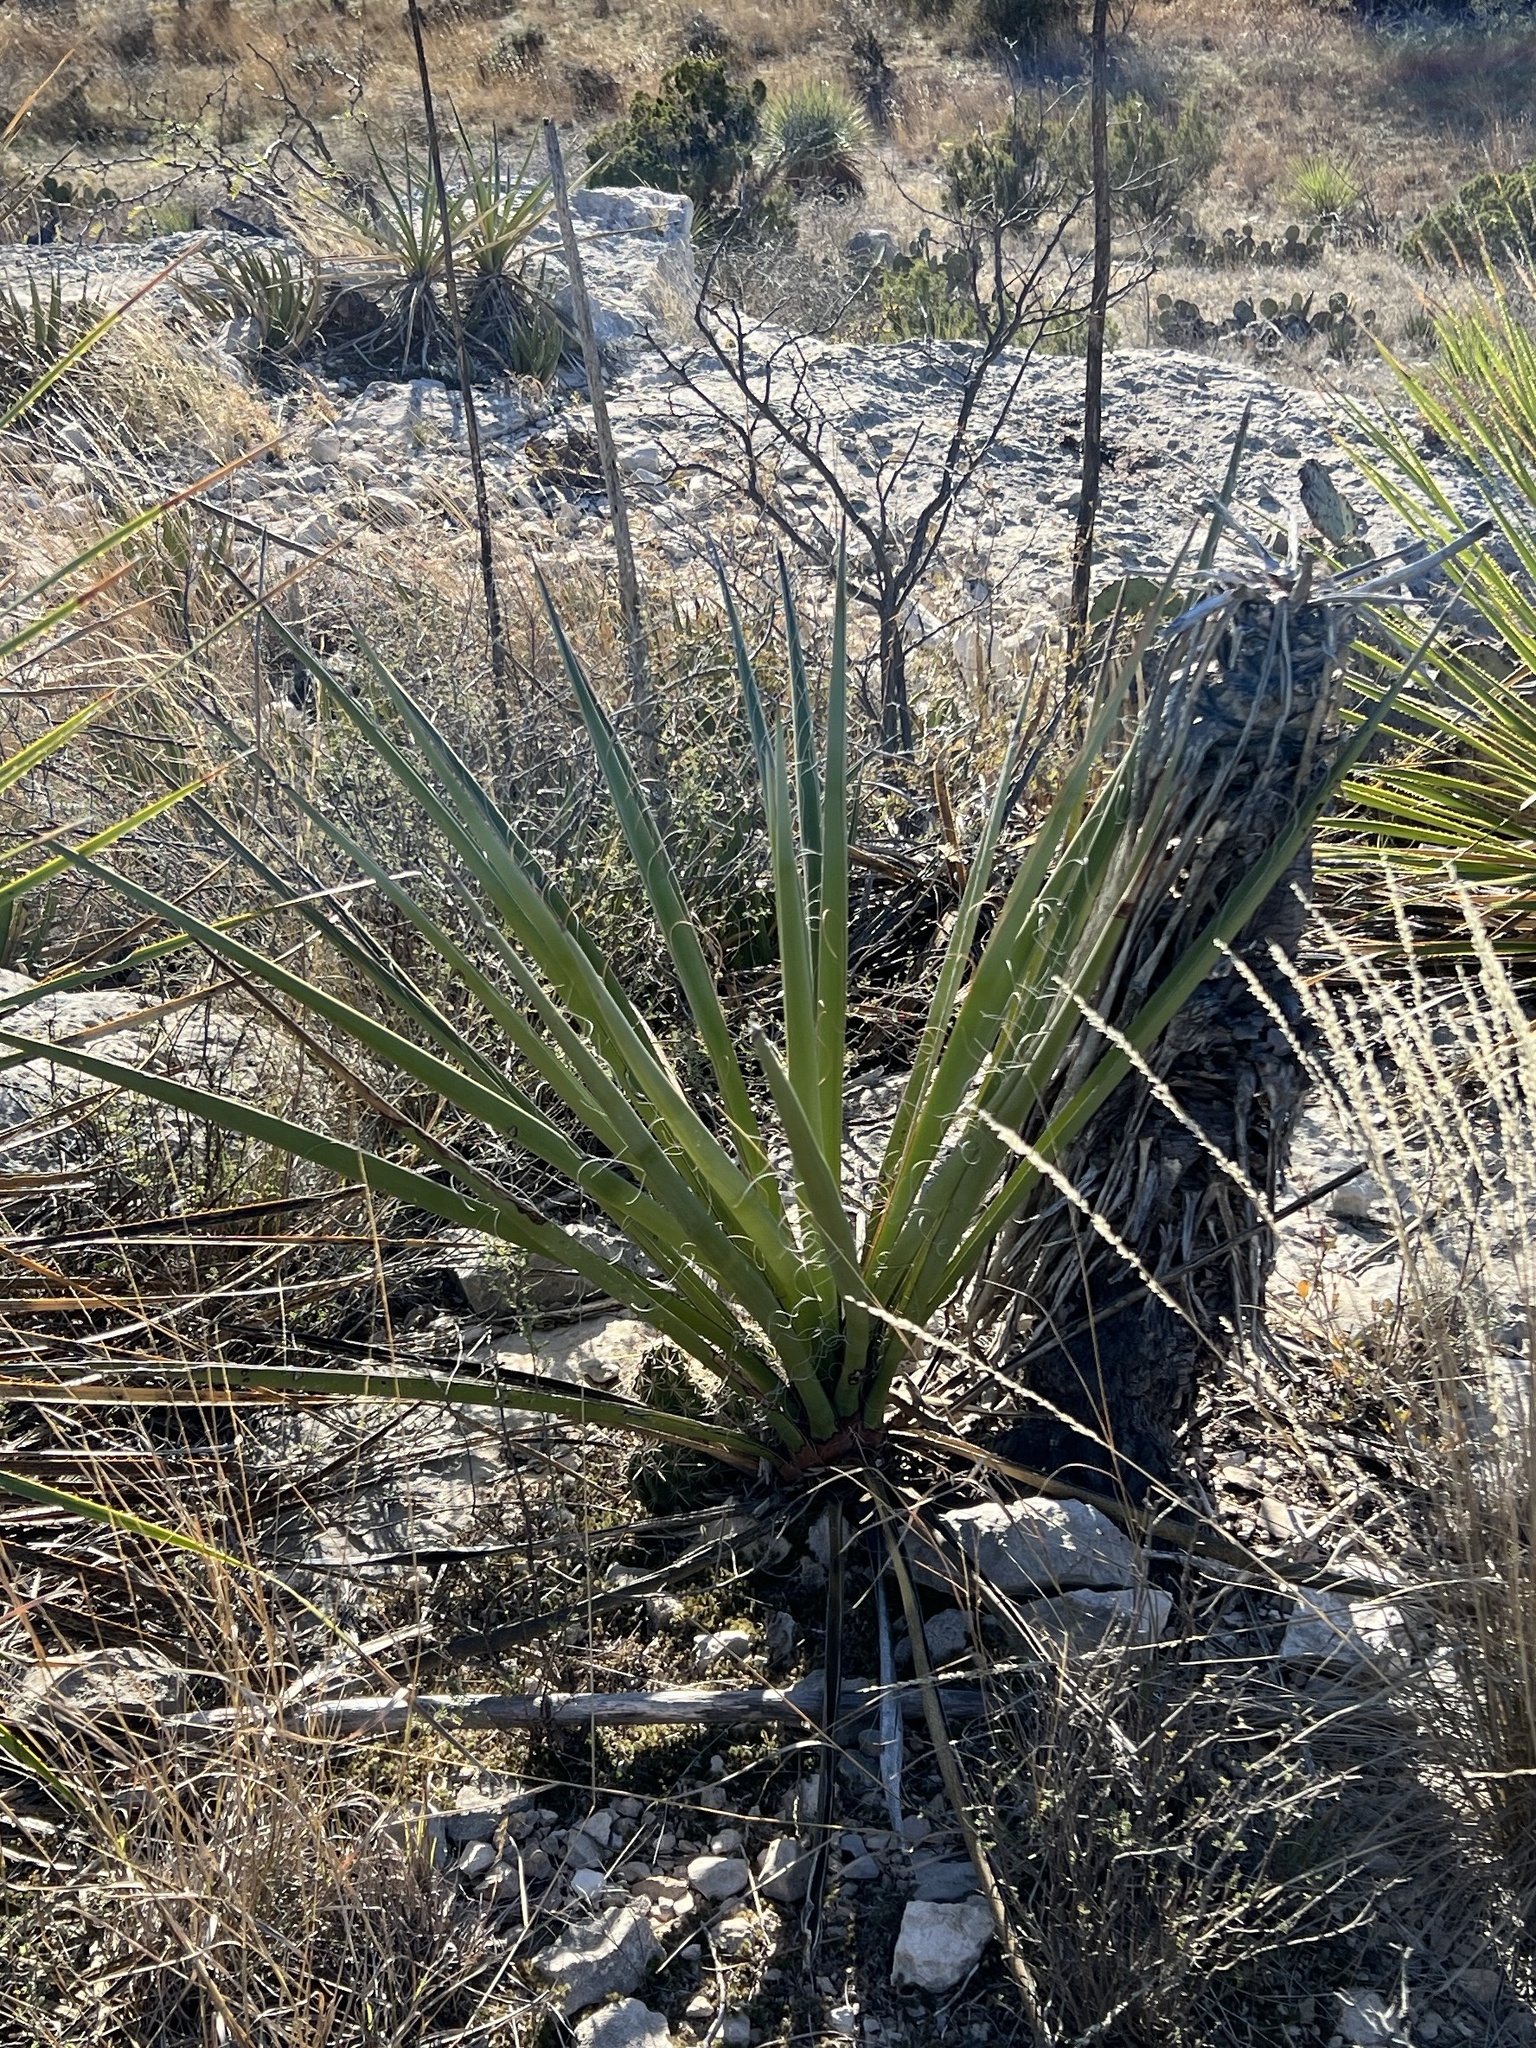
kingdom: Plantae
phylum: Tracheophyta
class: Liliopsida
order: Asparagales
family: Asparagaceae
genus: Yucca
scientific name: Yucca treculiana
